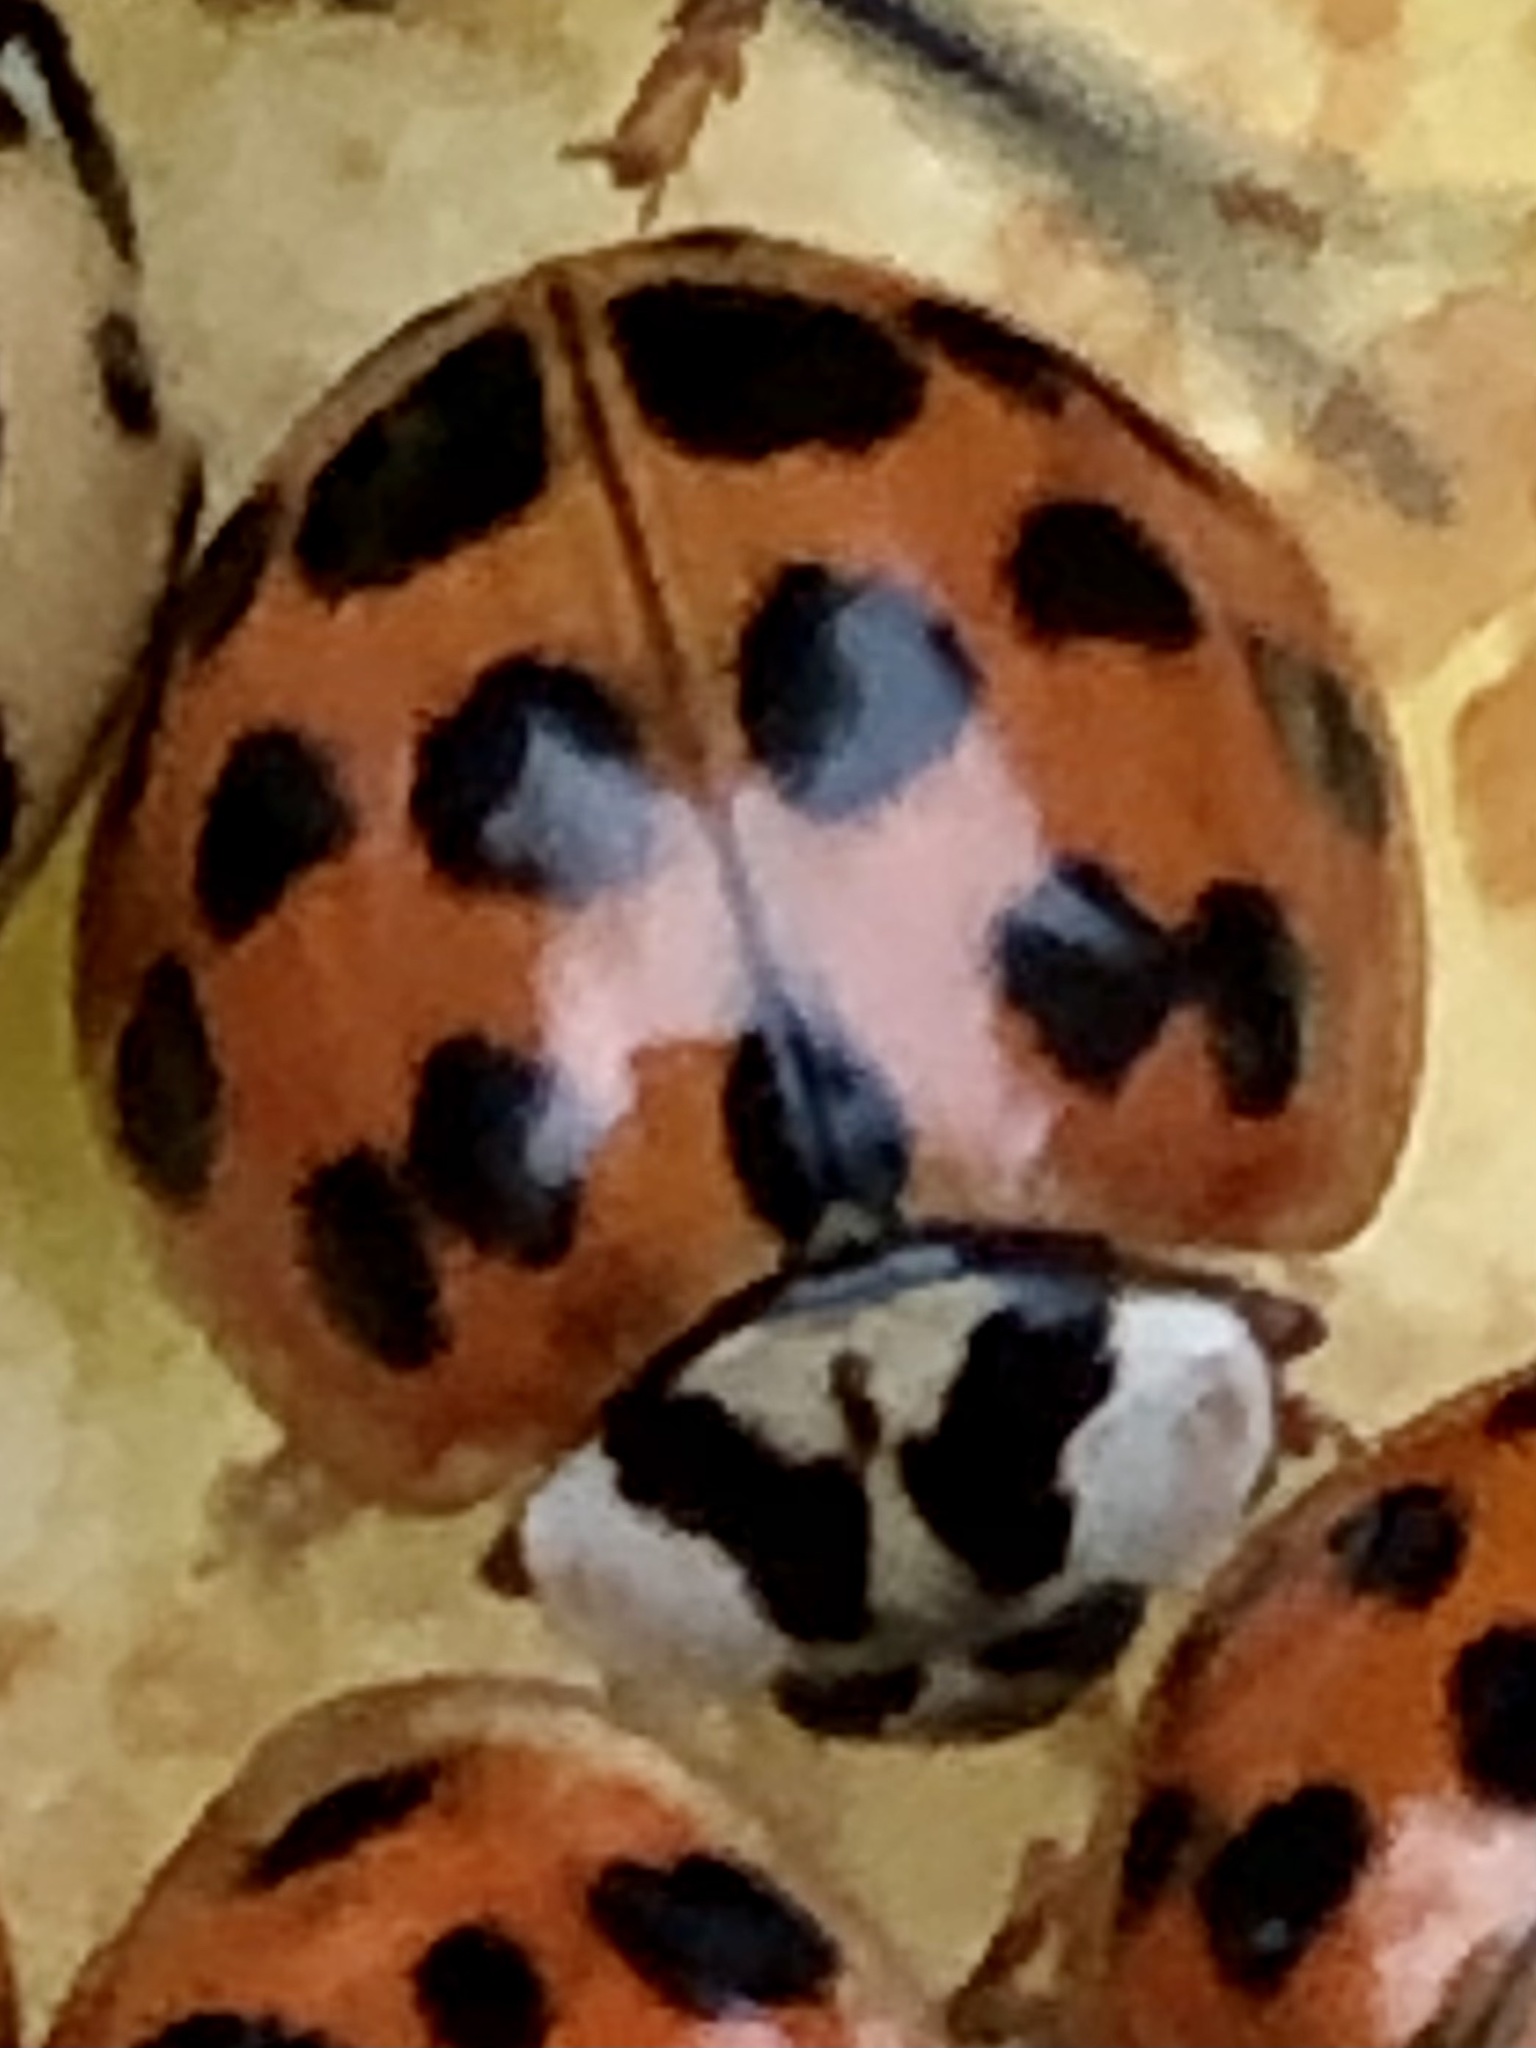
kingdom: Animalia
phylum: Arthropoda
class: Insecta
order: Coleoptera
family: Coccinellidae
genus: Harmonia
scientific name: Harmonia axyridis
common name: Harlequin ladybird
